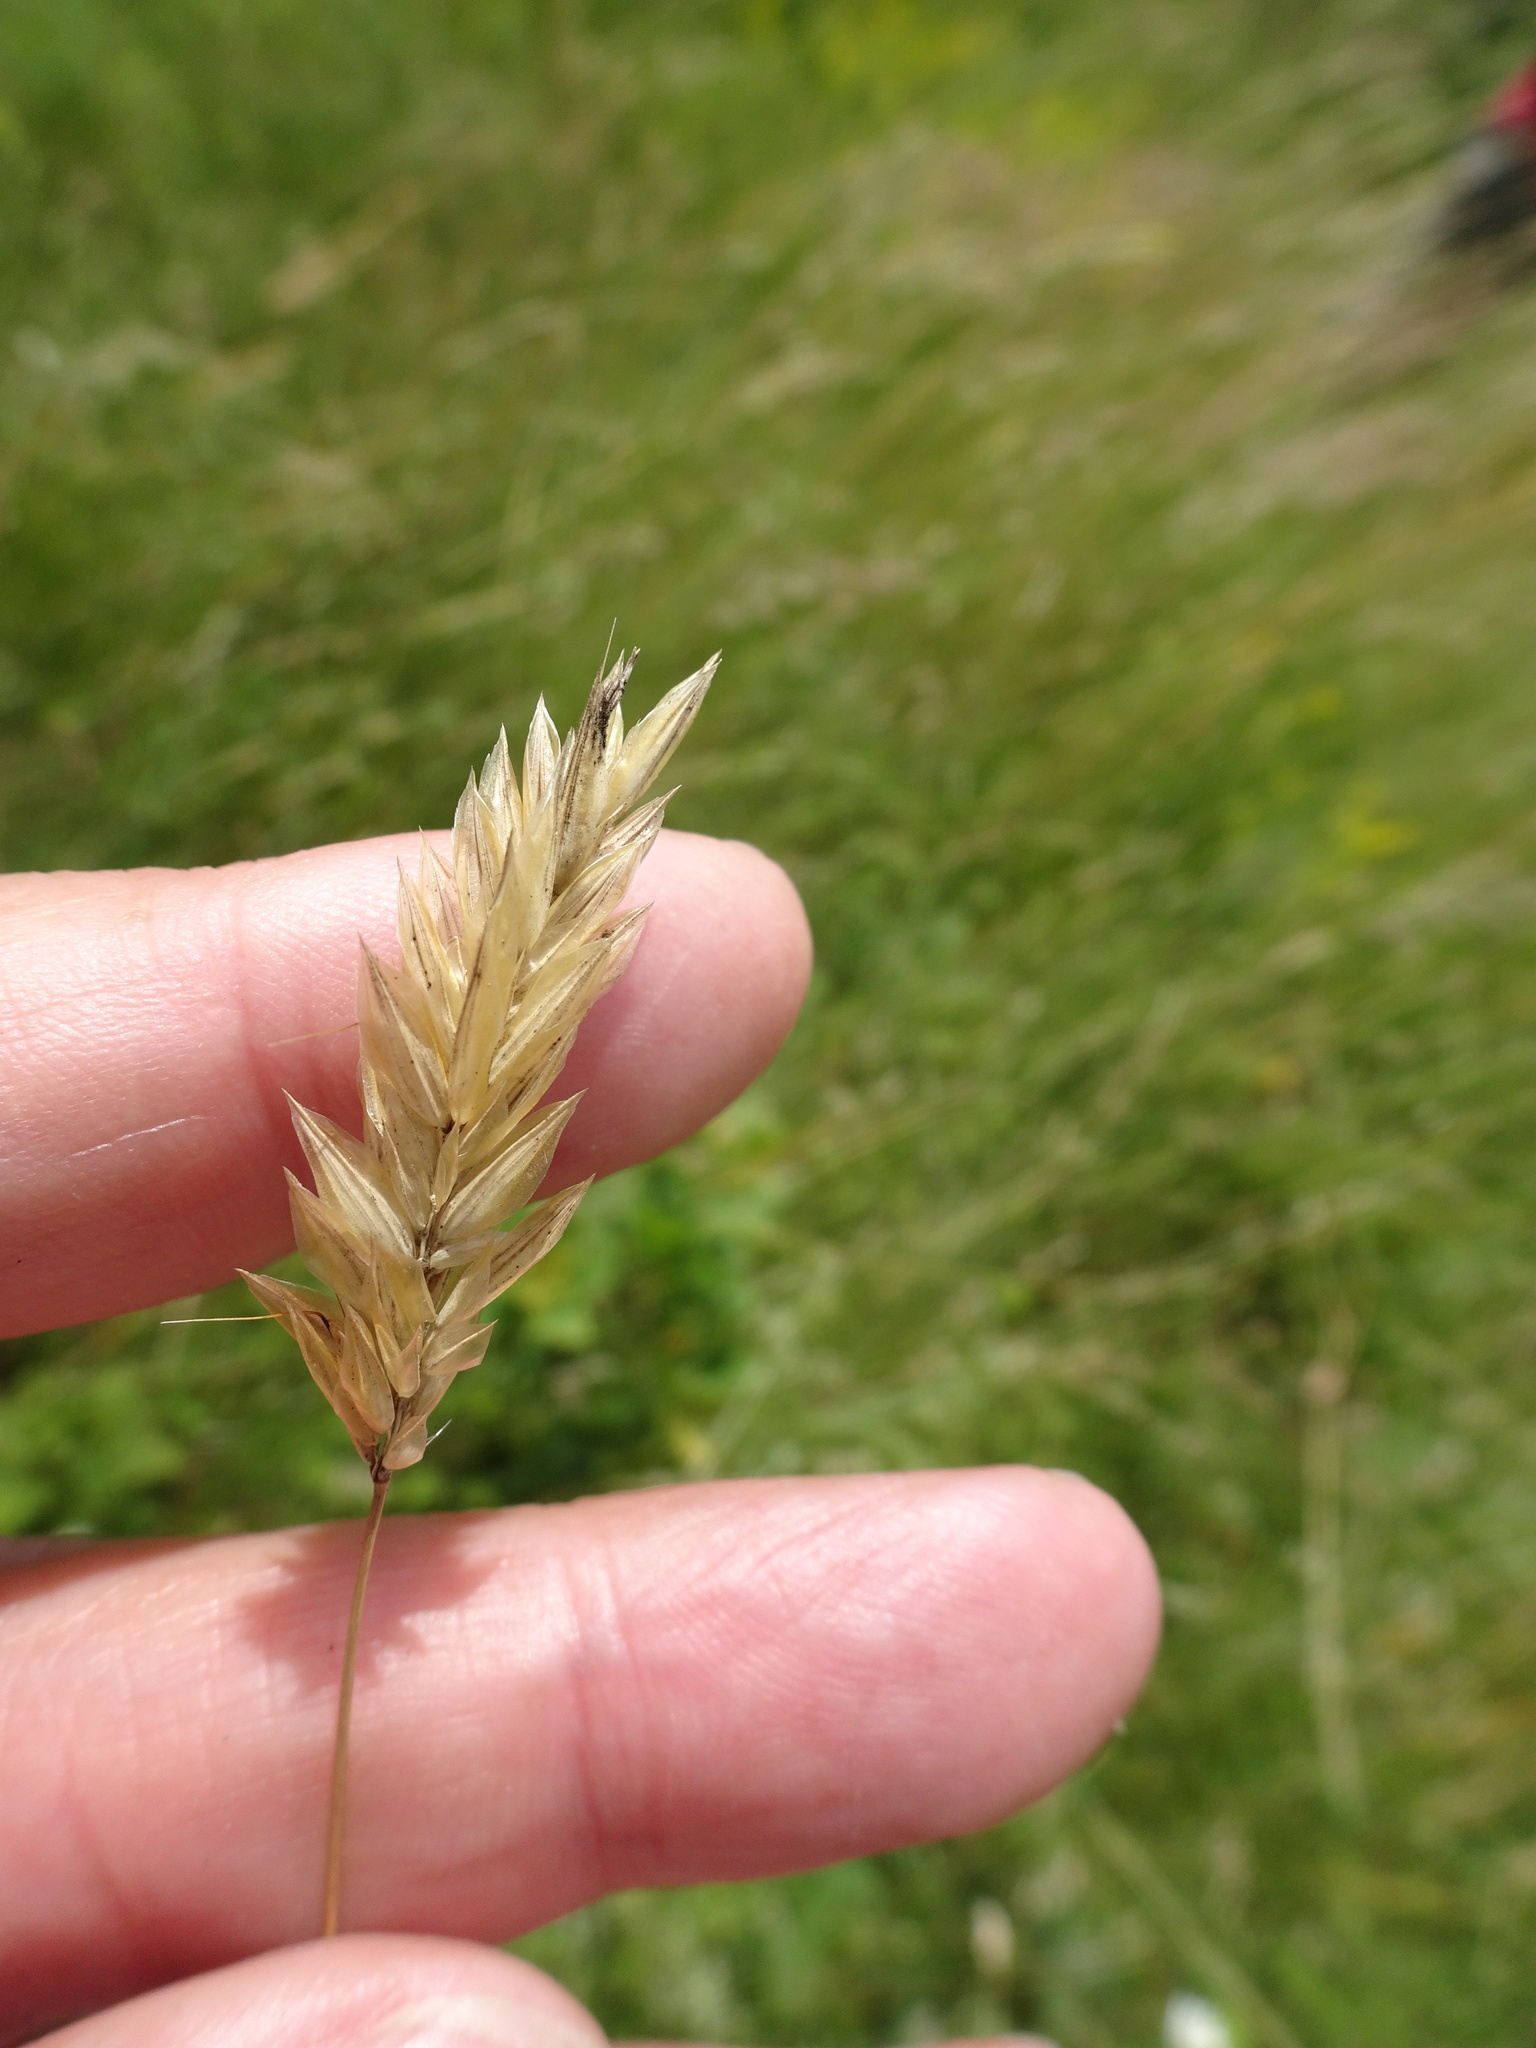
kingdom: Plantae
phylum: Tracheophyta
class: Liliopsida
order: Poales
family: Poaceae
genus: Anthoxanthum
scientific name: Anthoxanthum odoratum
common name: Sweet vernalgrass
